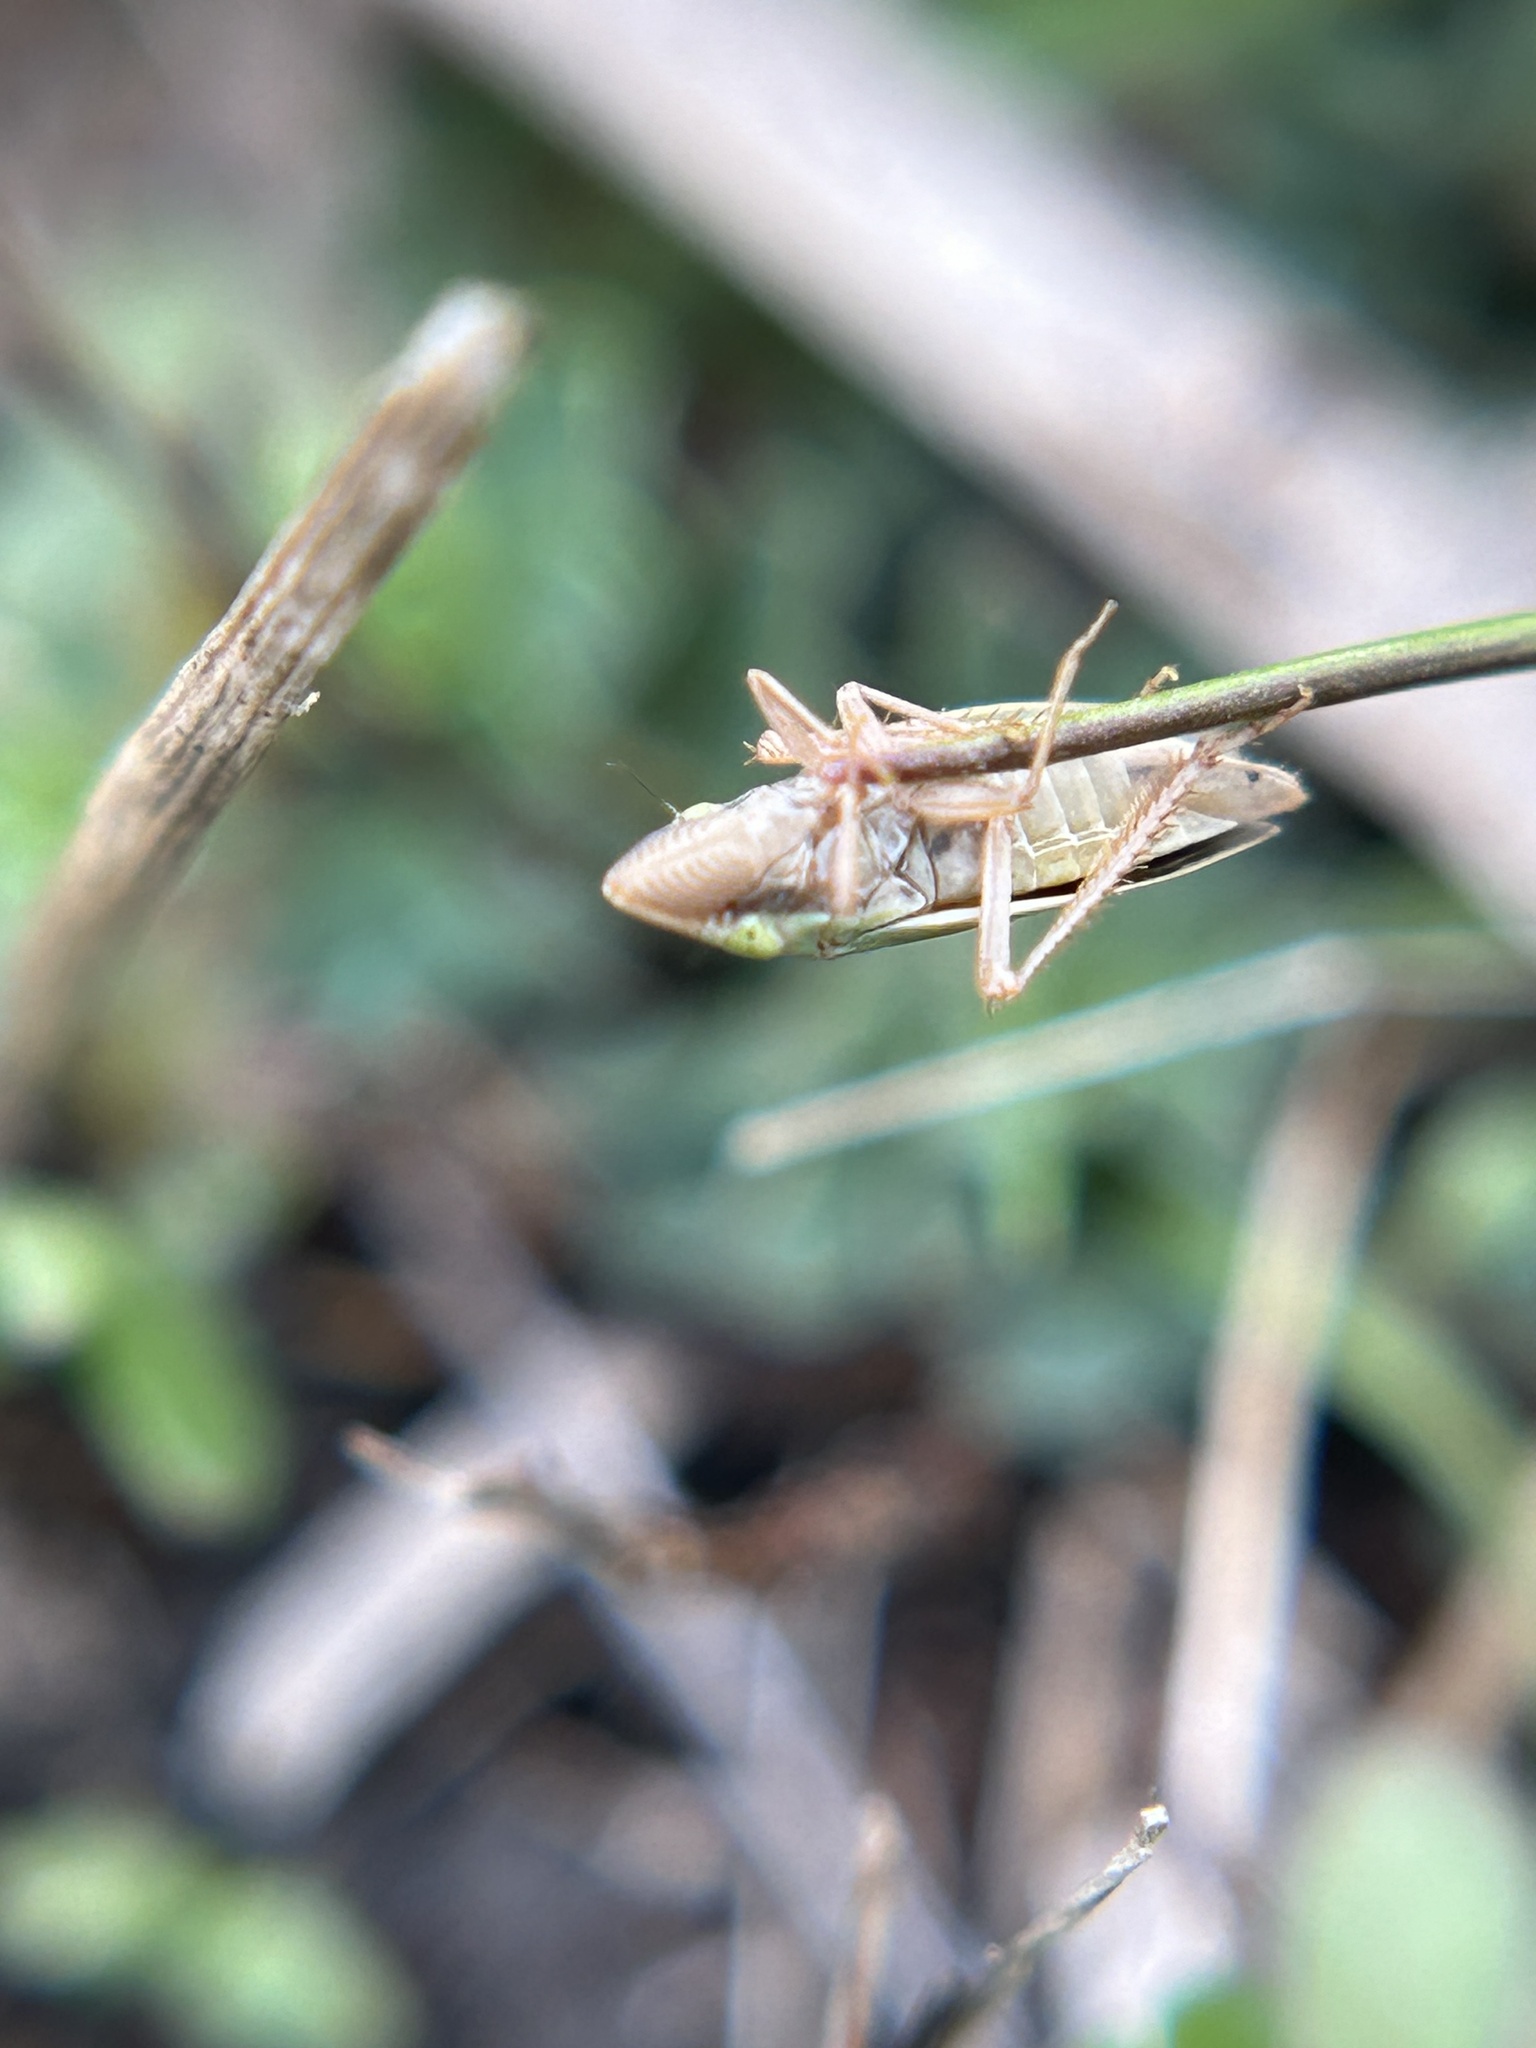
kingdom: Animalia
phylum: Arthropoda
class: Insecta
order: Hemiptera
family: Cicadellidae
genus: Draeculacephala
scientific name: Draeculacephala minerva
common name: Grass sharphooter
